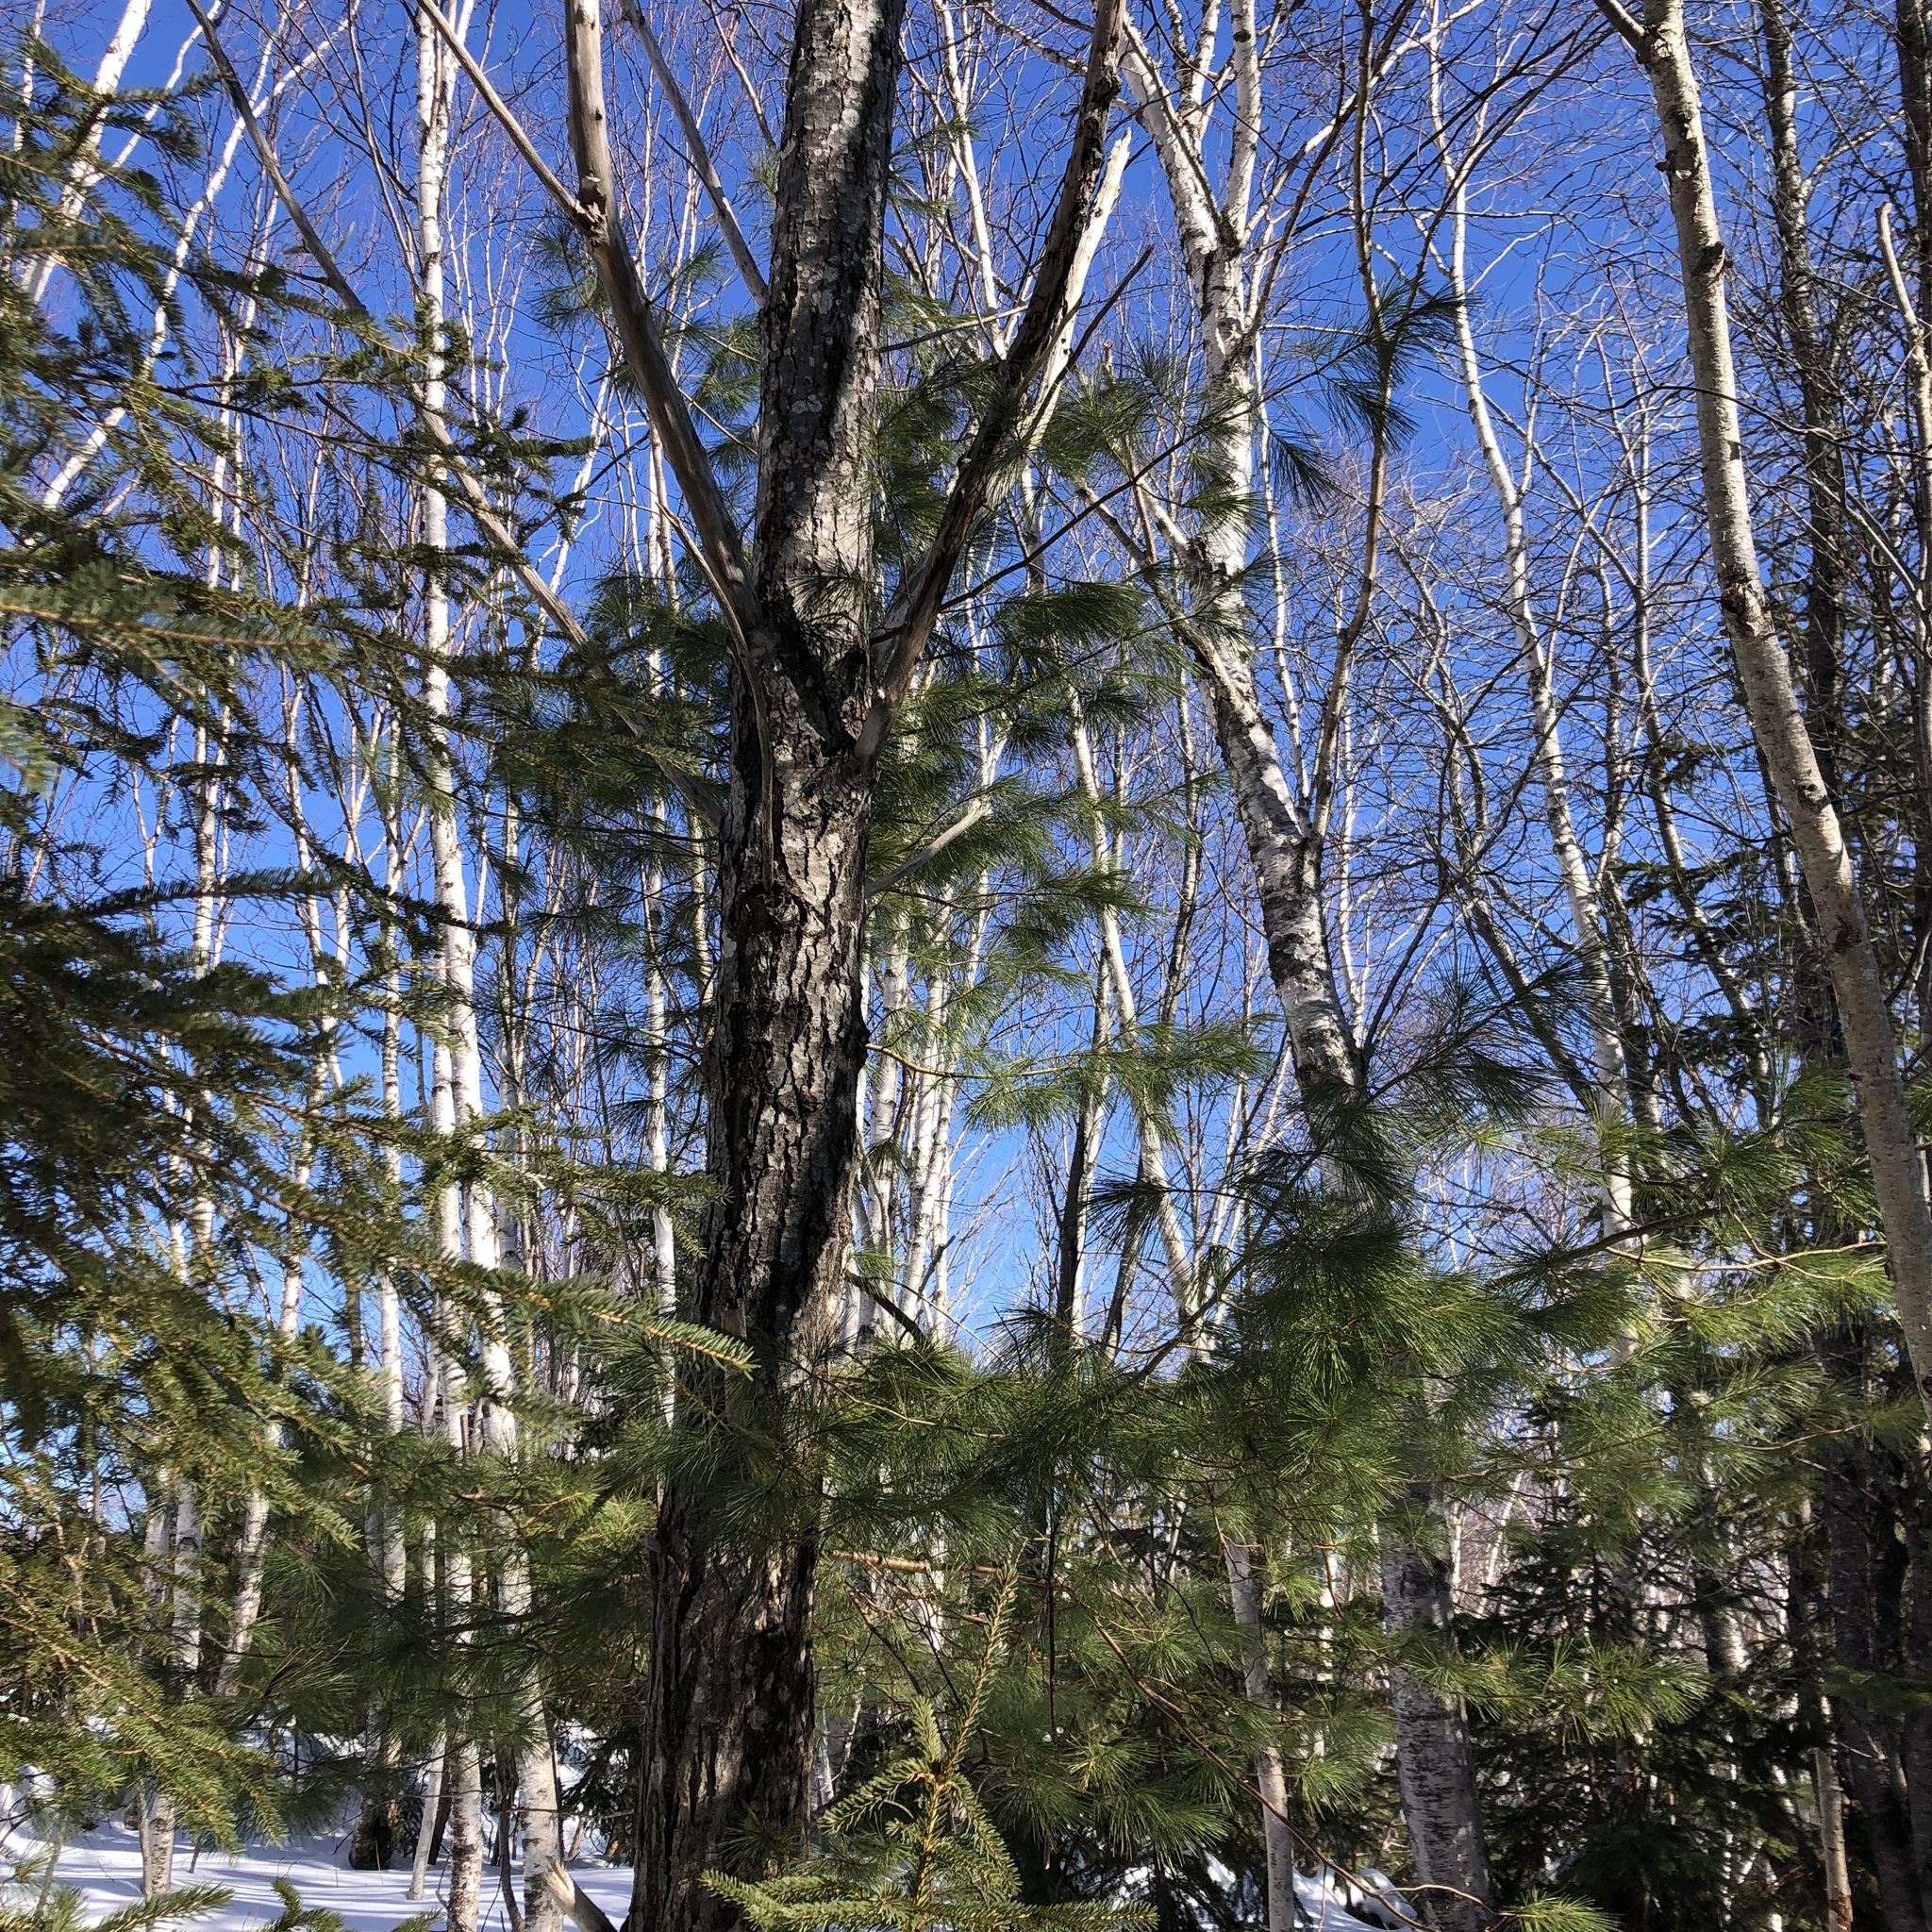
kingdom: Plantae
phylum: Tracheophyta
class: Pinopsida
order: Pinales
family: Pinaceae
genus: Pinus
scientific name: Pinus strobus
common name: Weymouth pine
